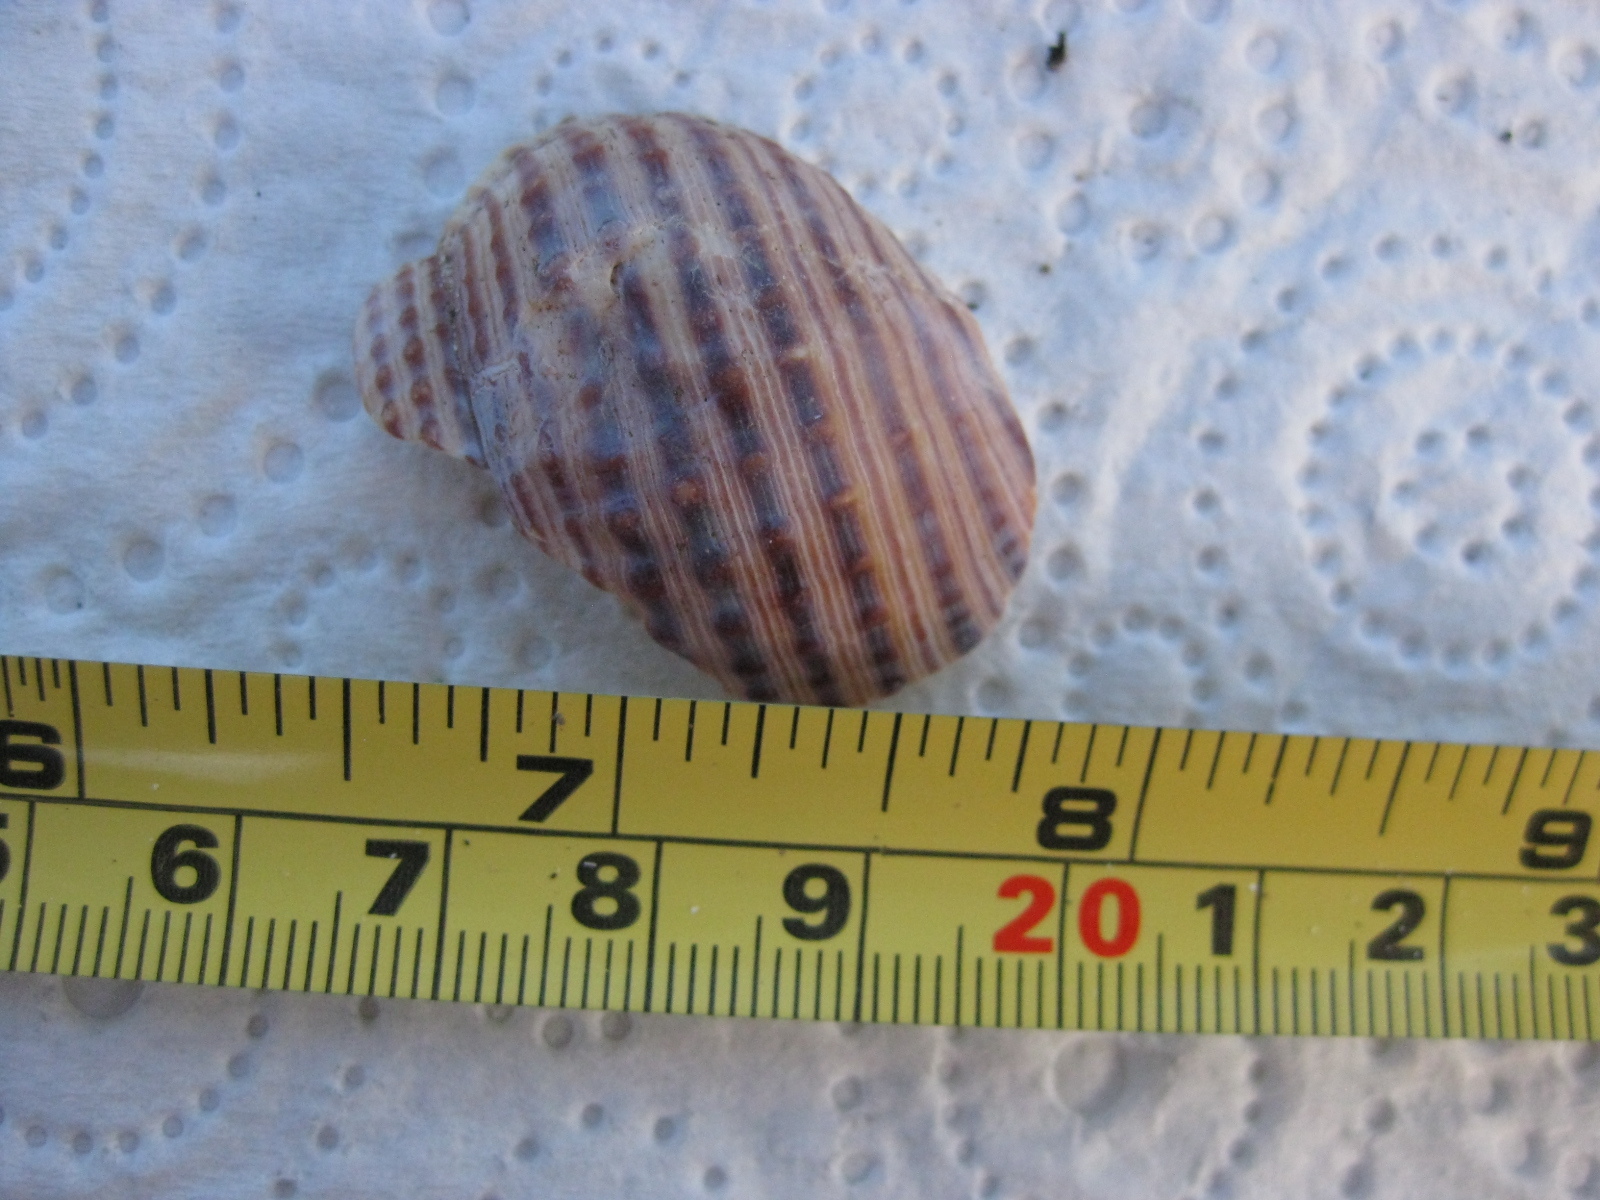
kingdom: Animalia
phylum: Mollusca
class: Gastropoda
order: Littorinimorpha
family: Cymatiidae
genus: Argobuccinum
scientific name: Argobuccinum pustulosum
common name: Pustular triton
